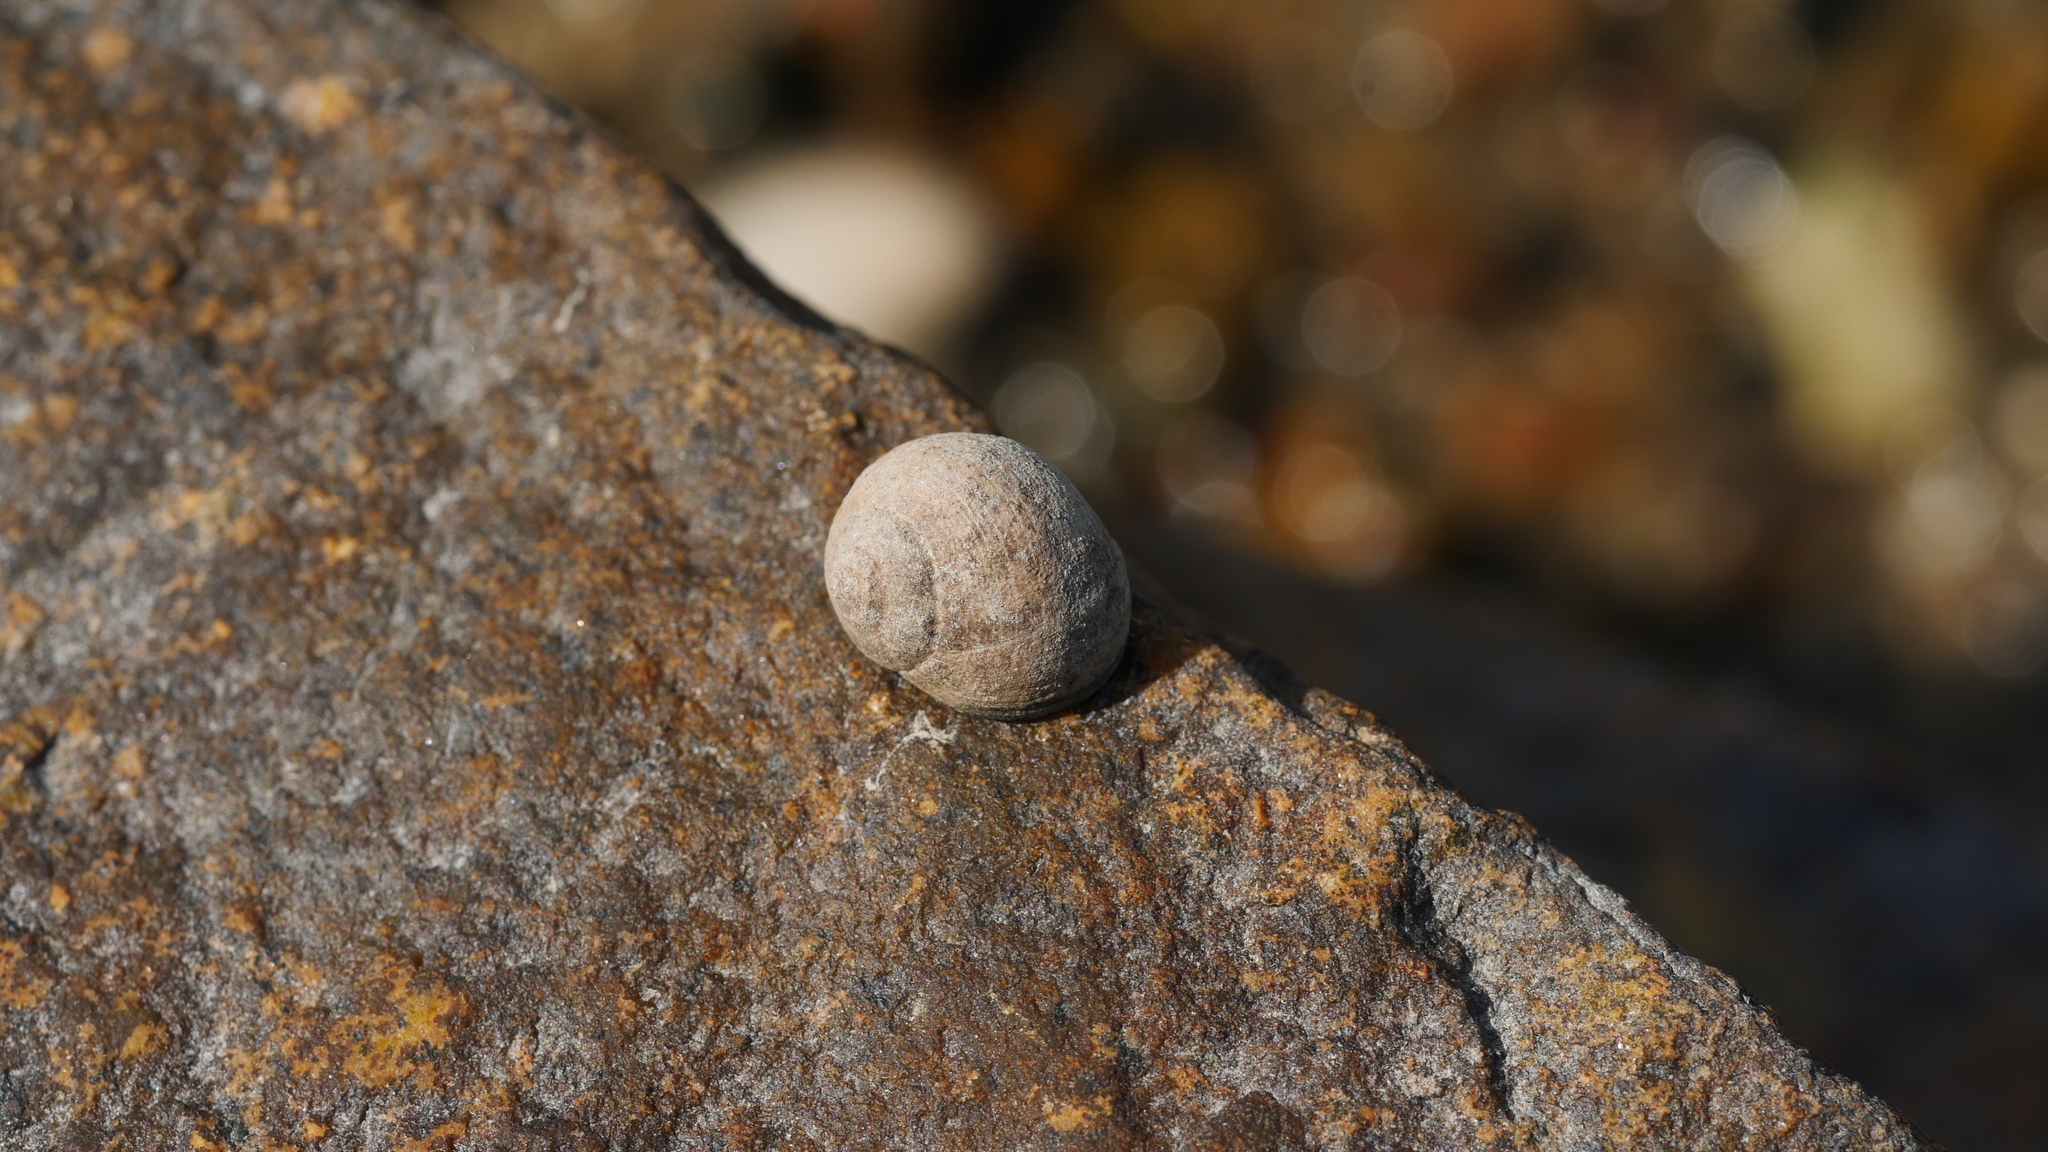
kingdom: Animalia
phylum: Mollusca
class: Gastropoda
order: Littorinimorpha
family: Littorinidae
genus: Littorina
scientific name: Littorina littorea
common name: Common periwinkle
